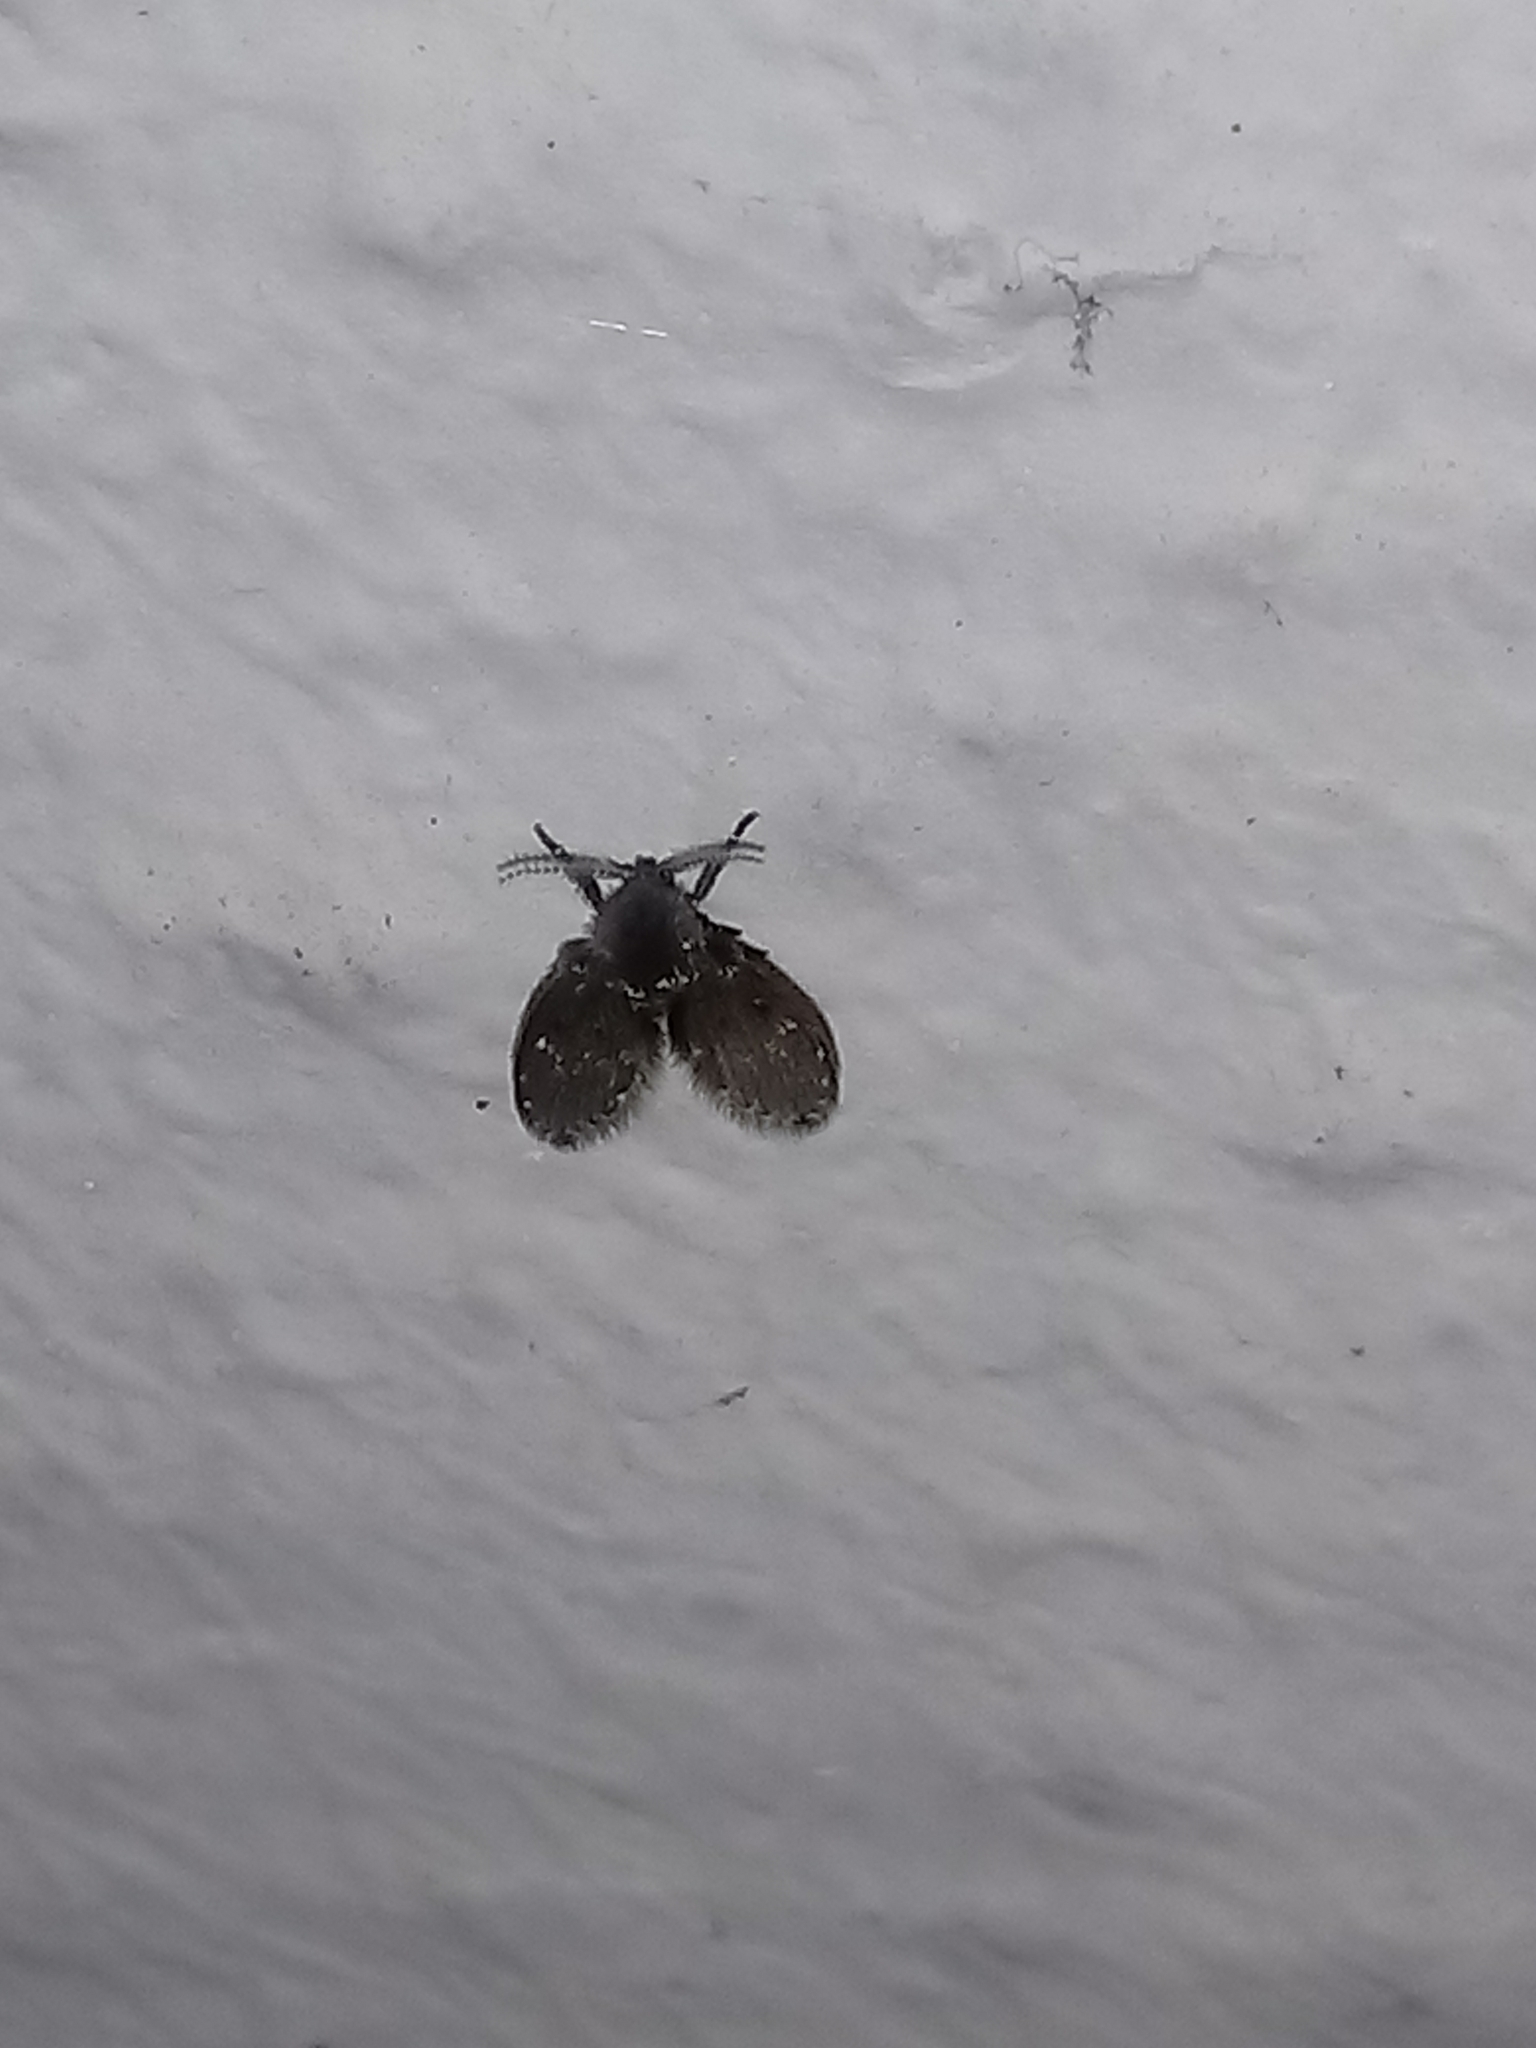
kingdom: Animalia
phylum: Arthropoda
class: Insecta
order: Diptera
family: Psychodidae
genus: Clogmia
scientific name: Clogmia albipunctatus
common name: White-spotted moth fly
